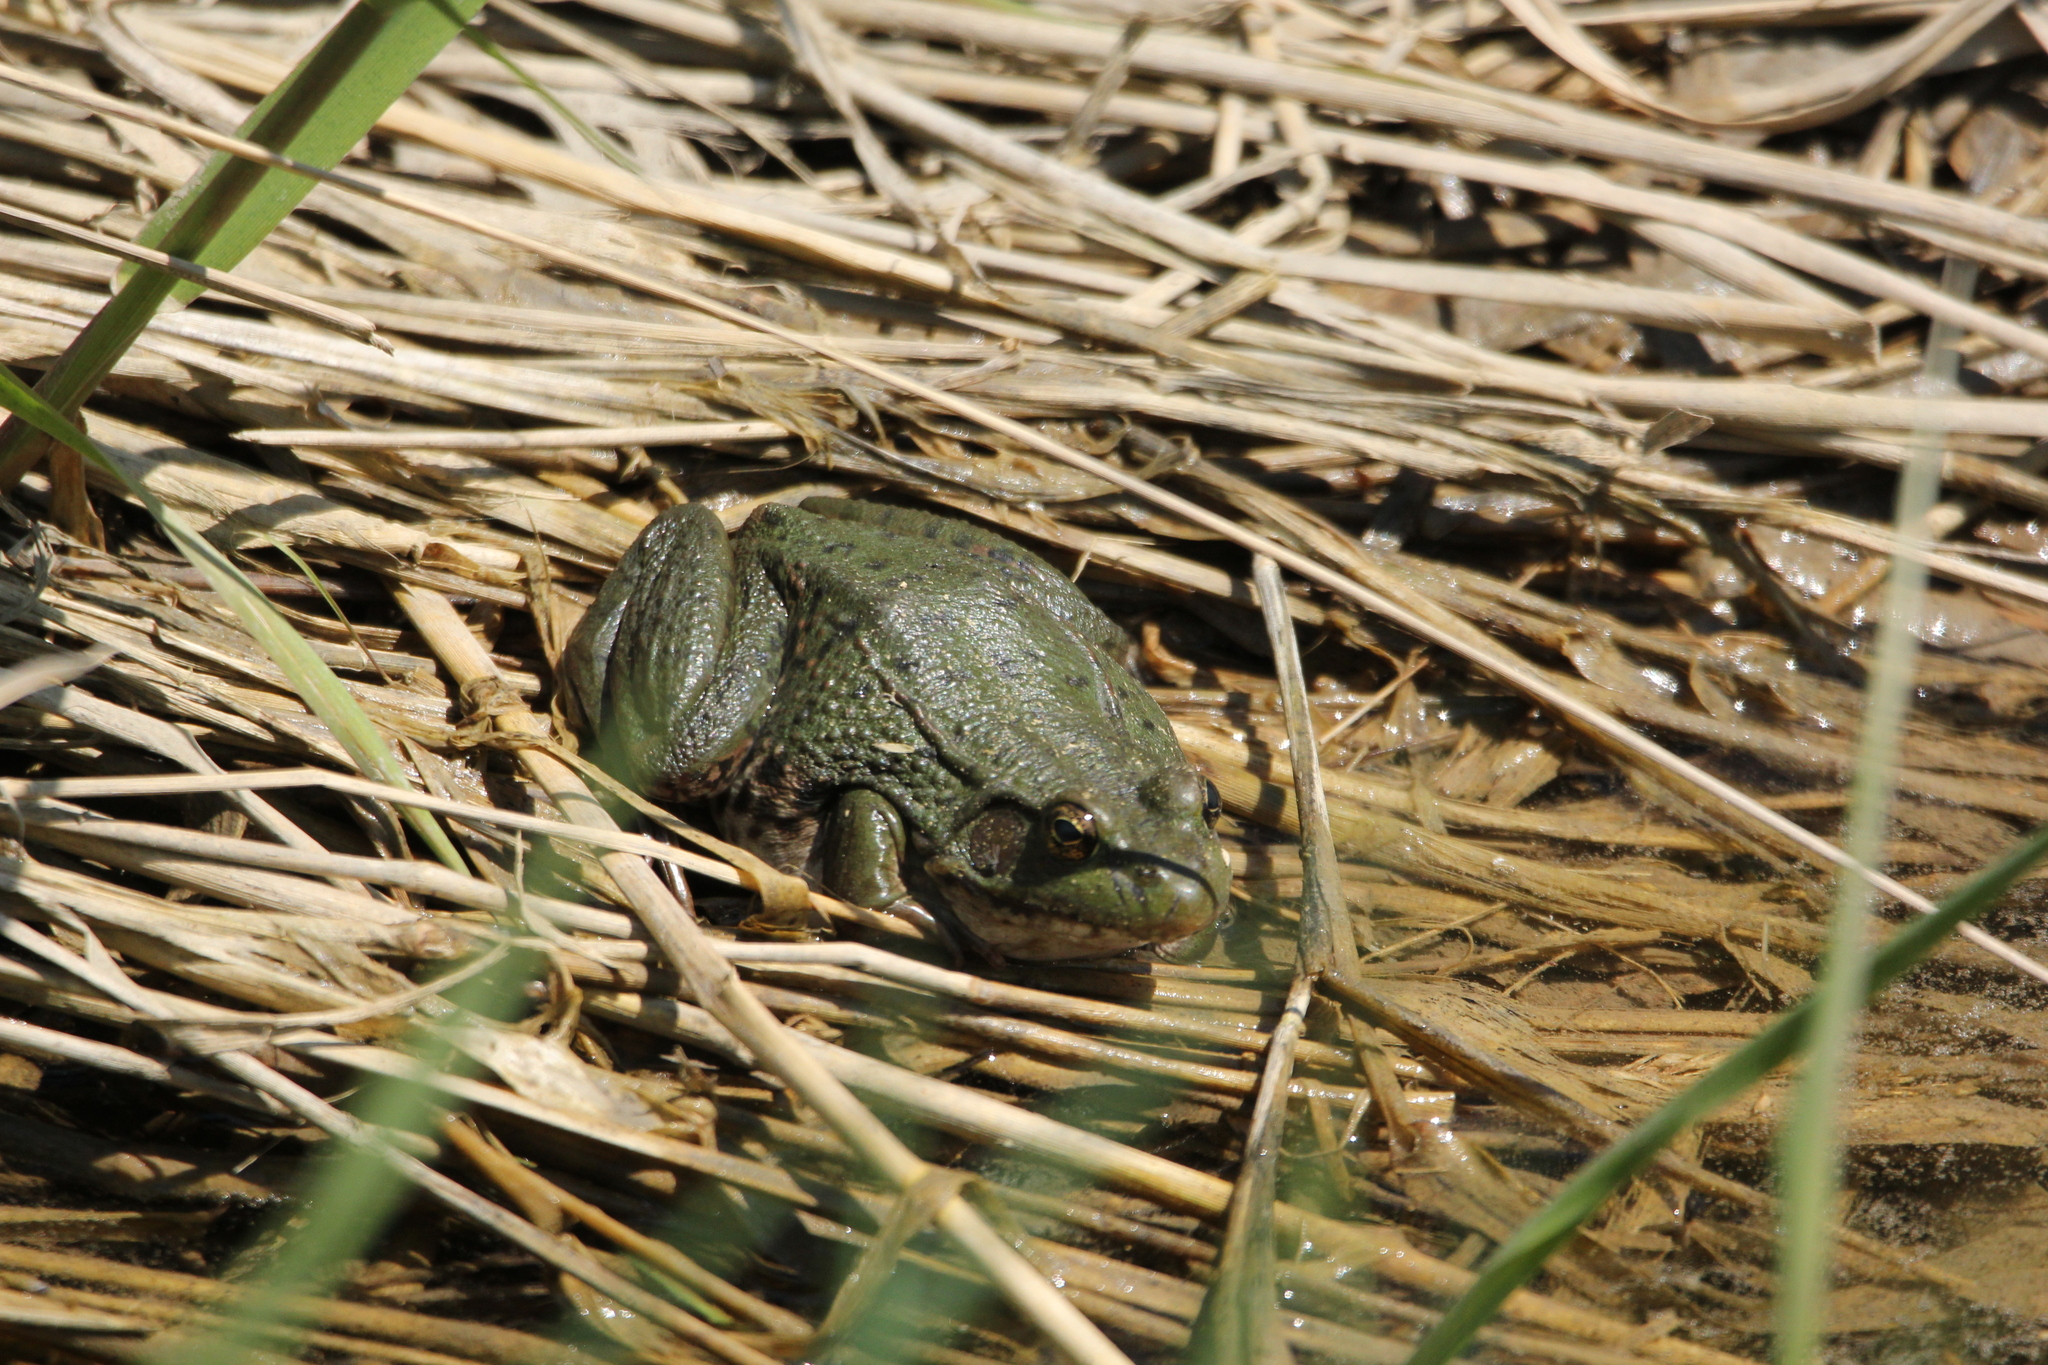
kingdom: Animalia
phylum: Chordata
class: Amphibia
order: Anura
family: Ranidae
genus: Lithobates
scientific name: Lithobates clamitans
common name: Green frog
